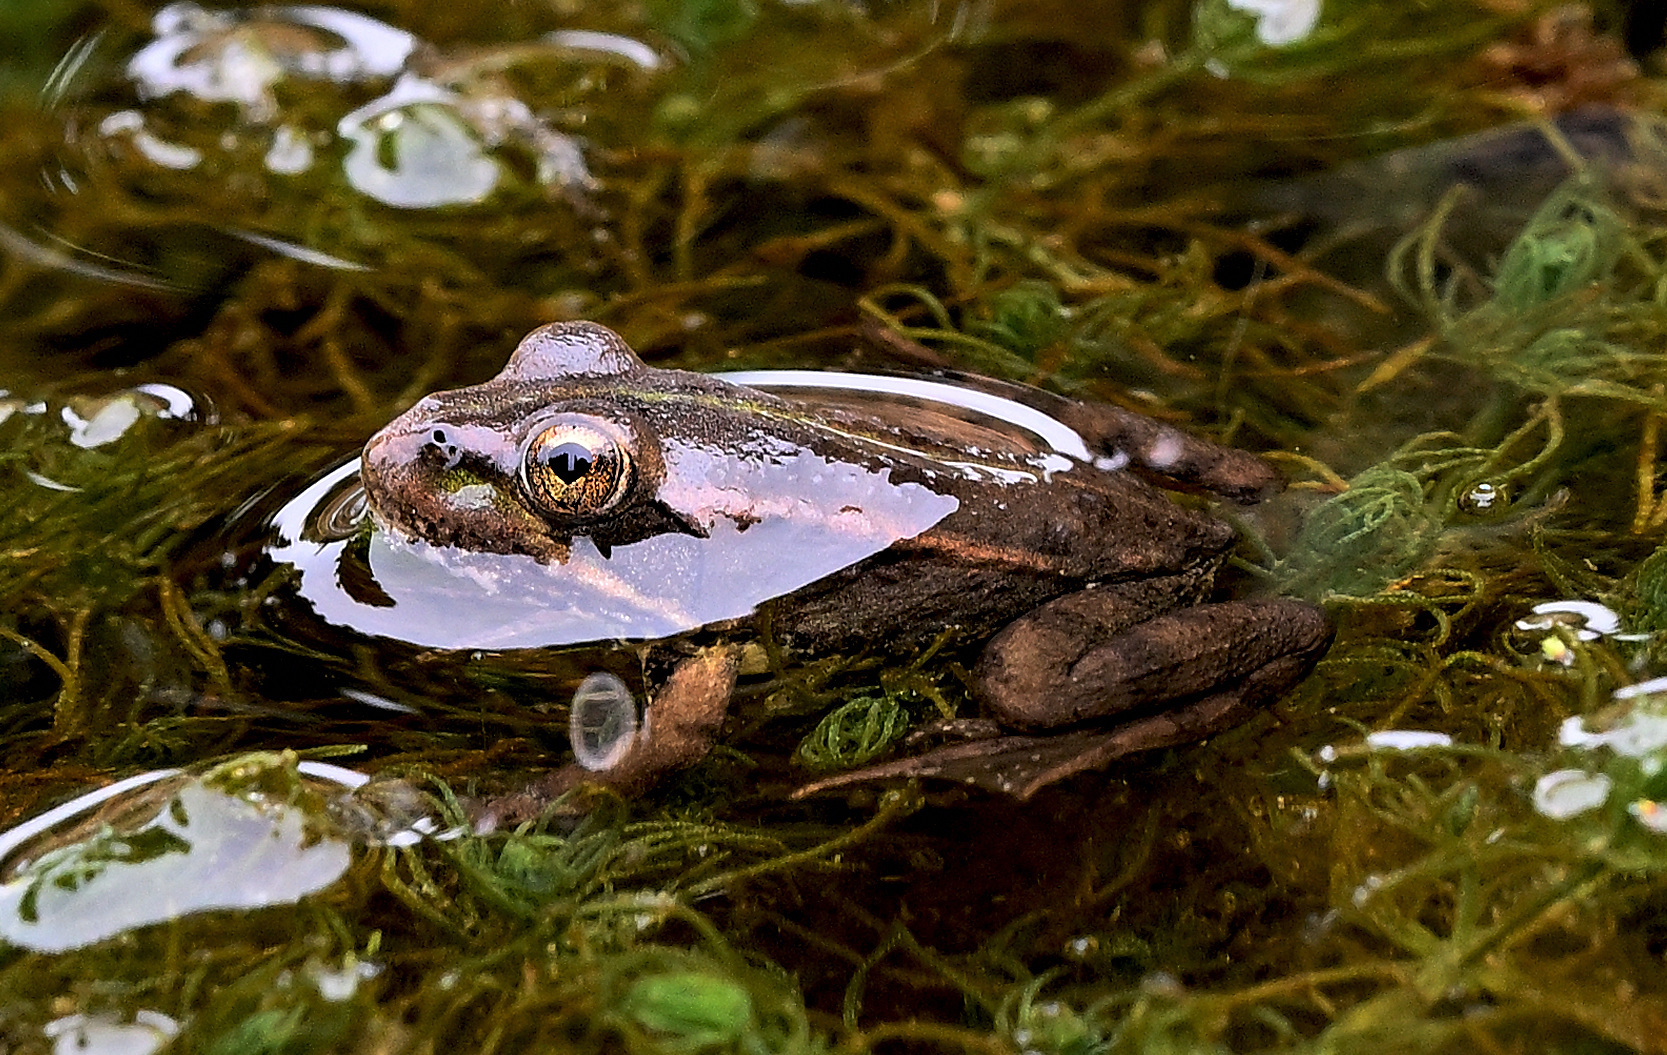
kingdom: Animalia
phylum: Chordata
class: Amphibia
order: Anura
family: Ranidae
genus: Pelophylax
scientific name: Pelophylax perezi
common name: Perez's frog
